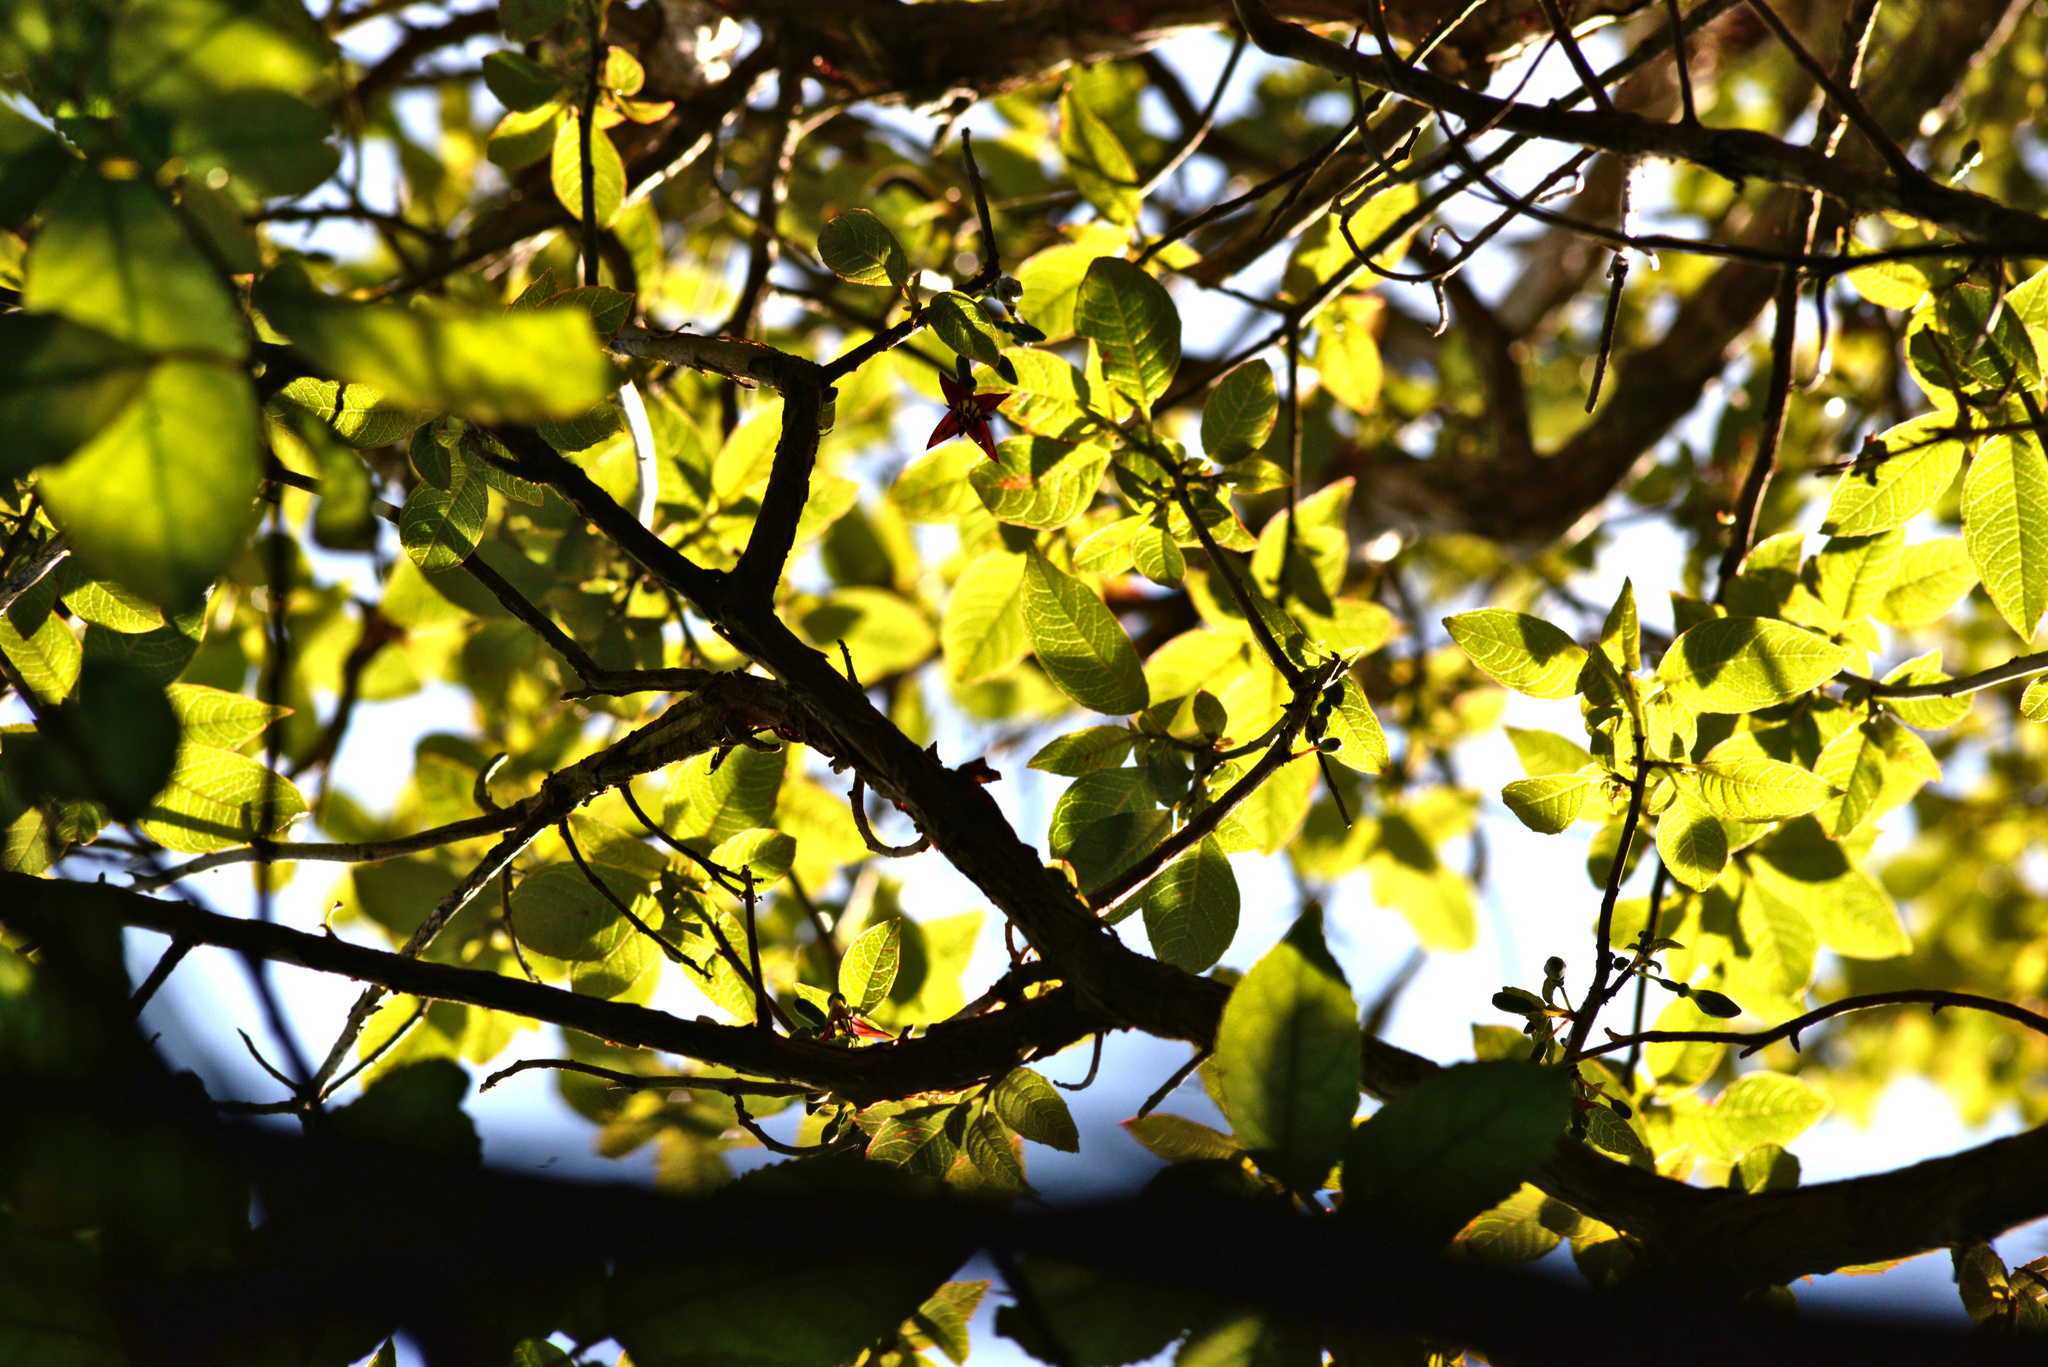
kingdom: Plantae
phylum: Tracheophyta
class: Magnoliopsida
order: Myrtales
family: Onagraceae
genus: Fuchsia
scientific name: Fuchsia excorticata
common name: Tree fuchsia
